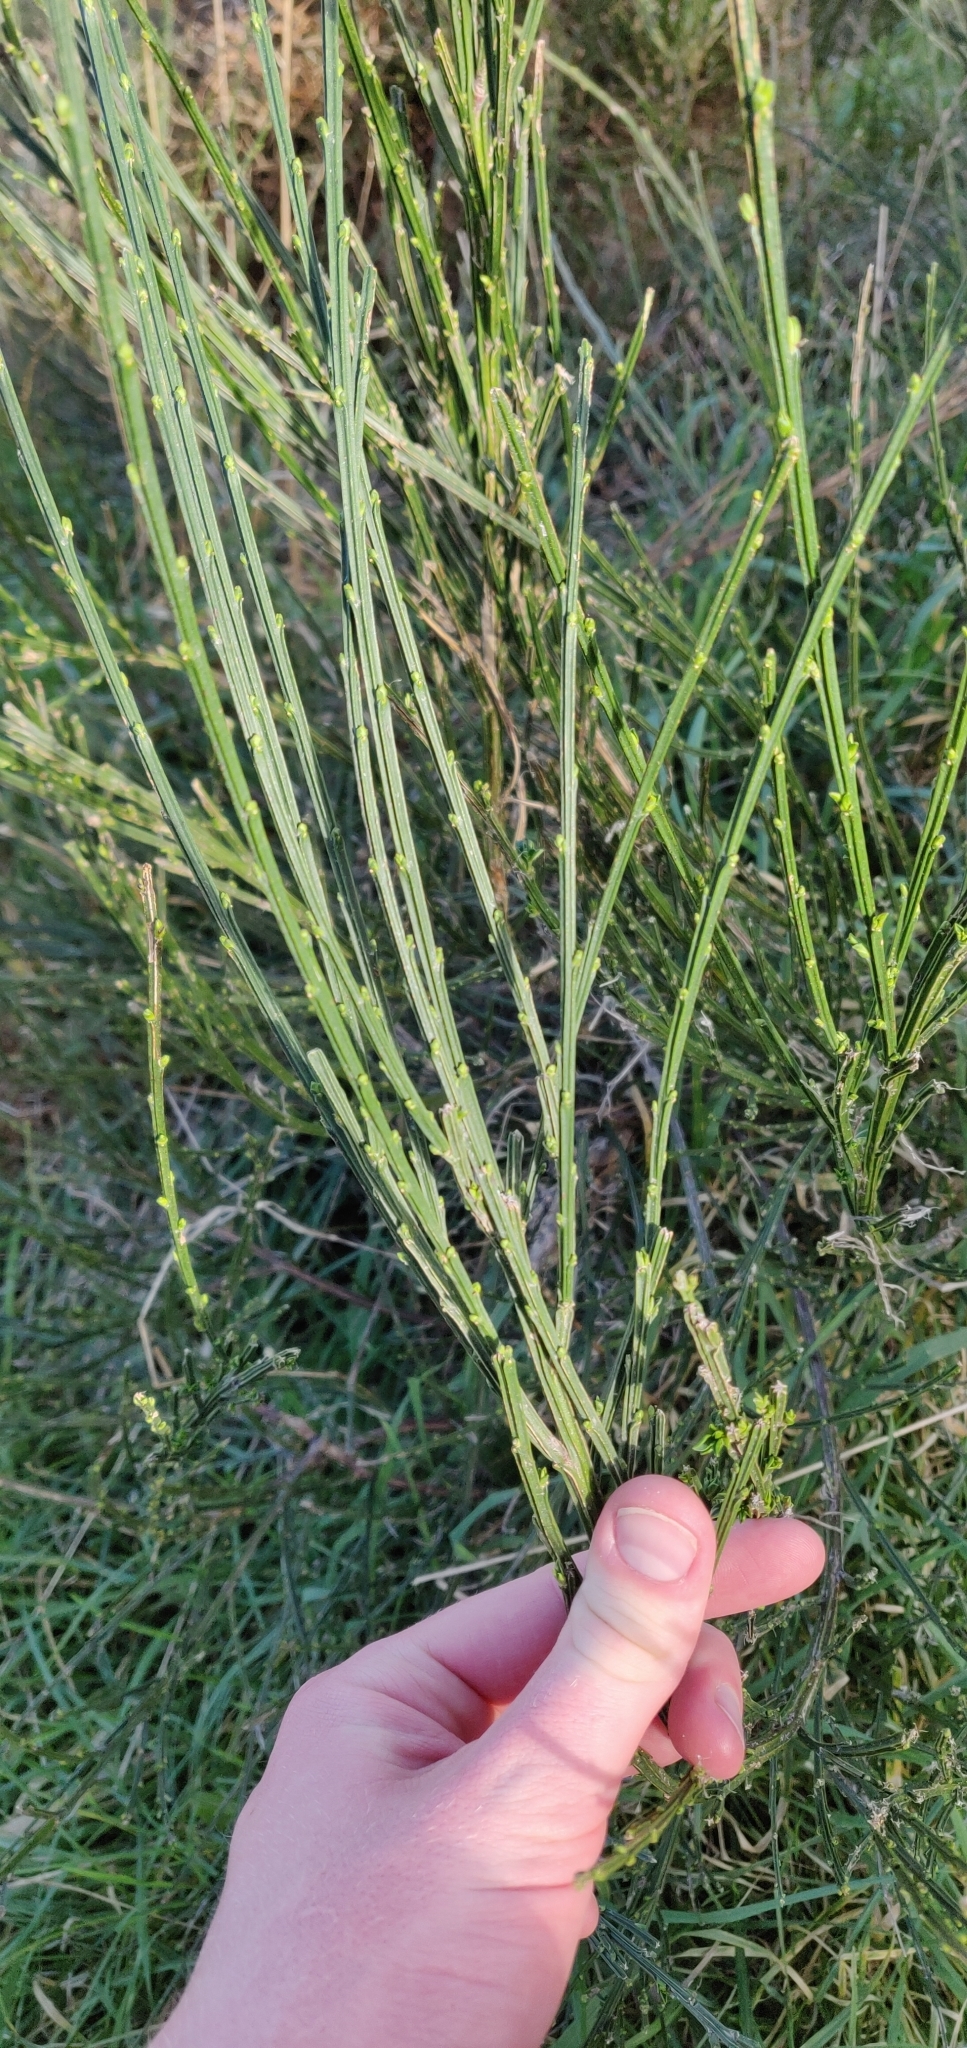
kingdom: Plantae
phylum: Tracheophyta
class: Magnoliopsida
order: Fabales
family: Fabaceae
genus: Cytisus
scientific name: Cytisus scoparius
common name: Scotch broom
